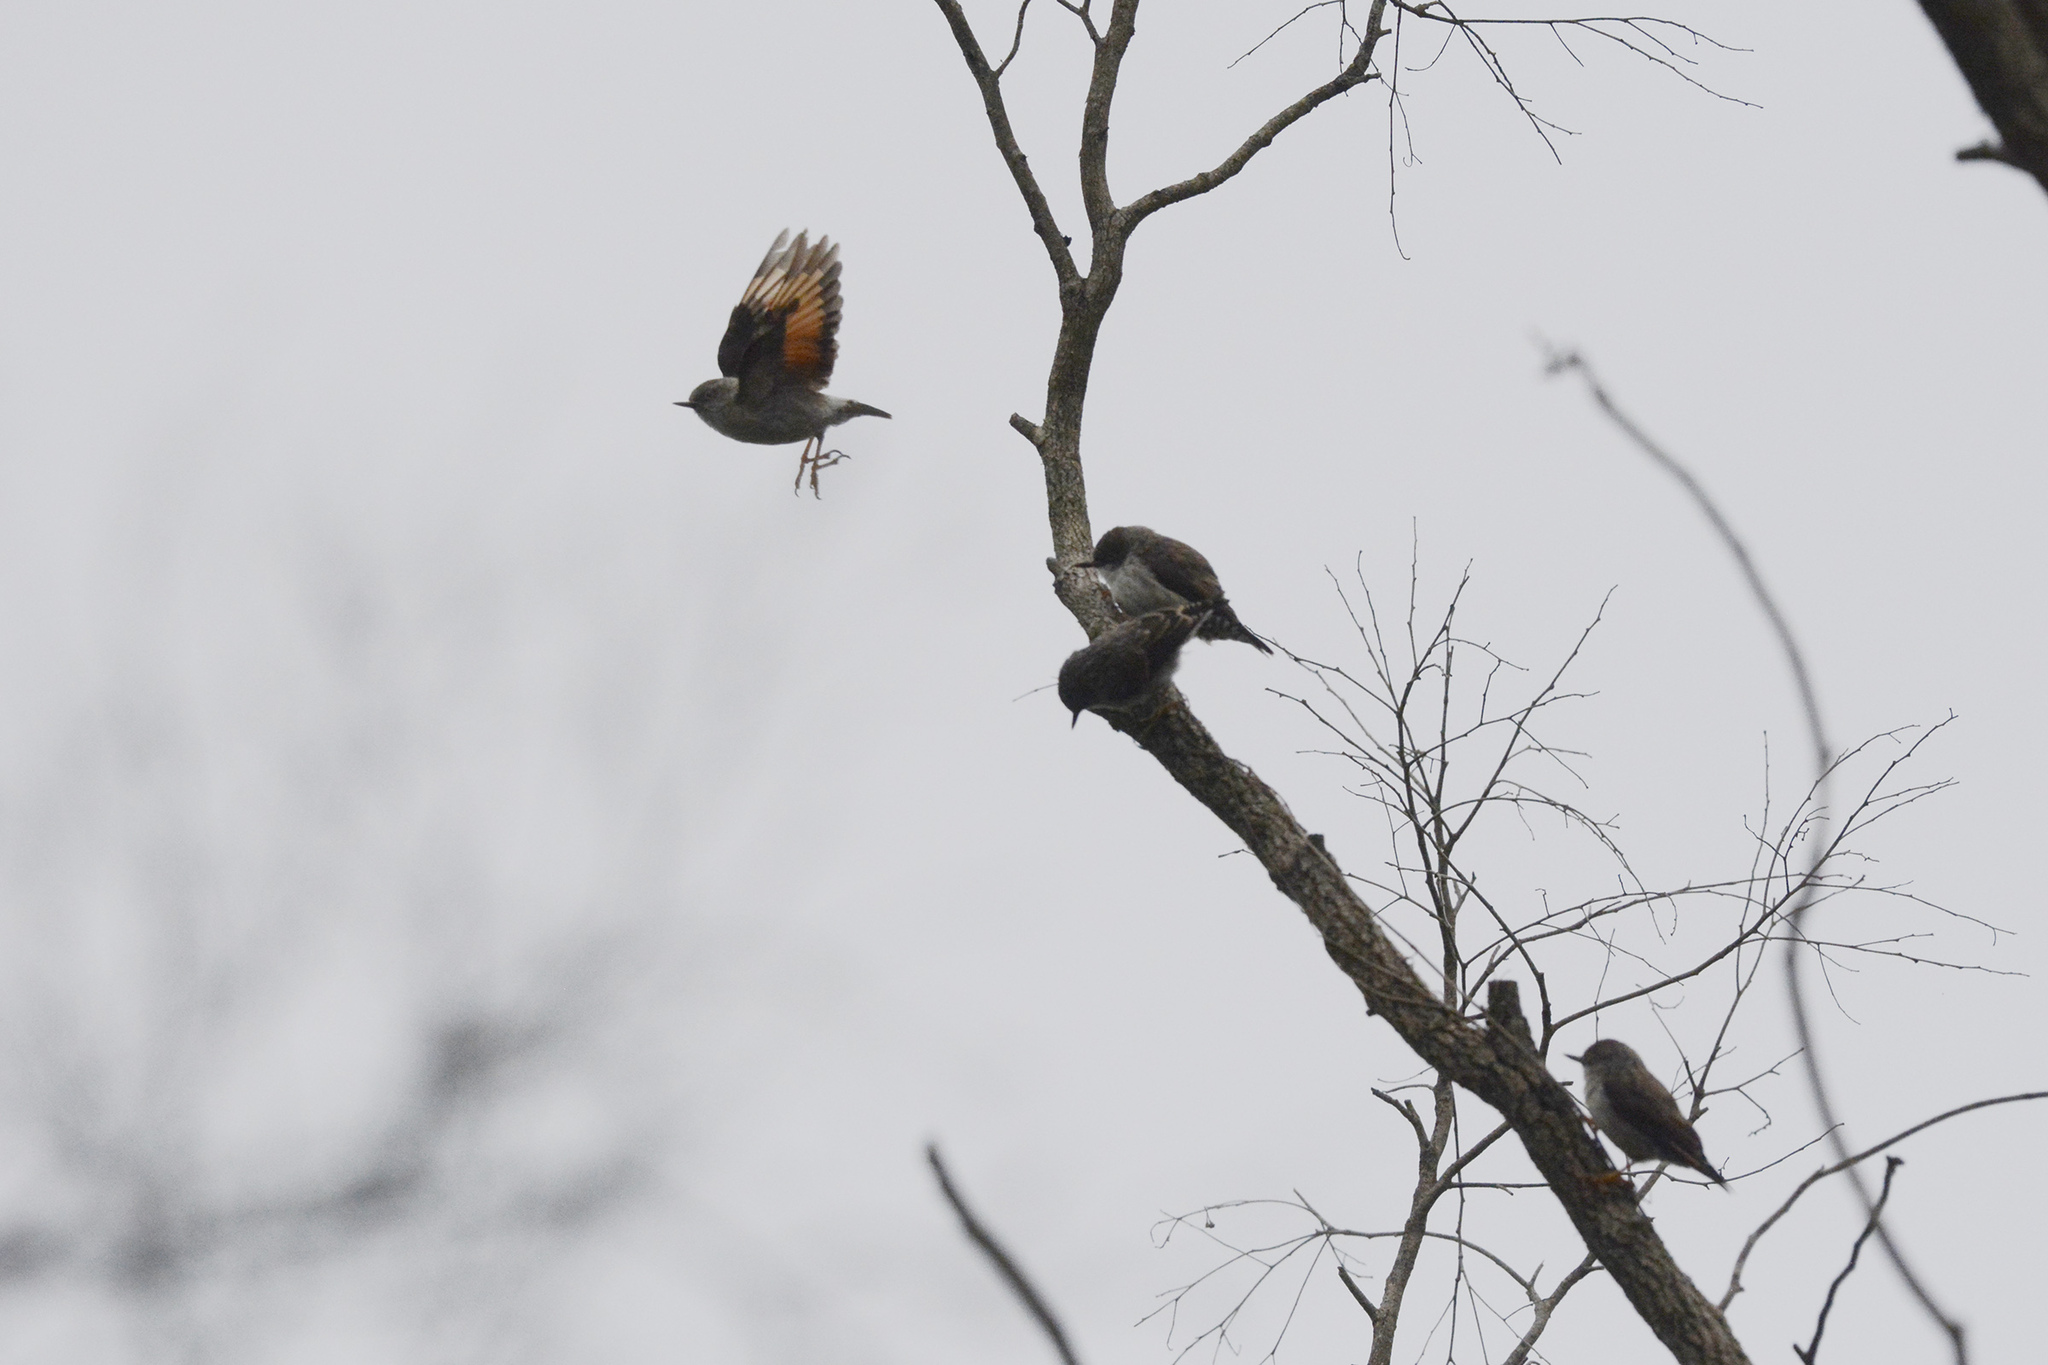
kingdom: Animalia
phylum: Chordata
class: Aves
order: Passeriformes
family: Neosittidae
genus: Daphoenositta
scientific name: Daphoenositta chrysoptera
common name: Varied sittella
